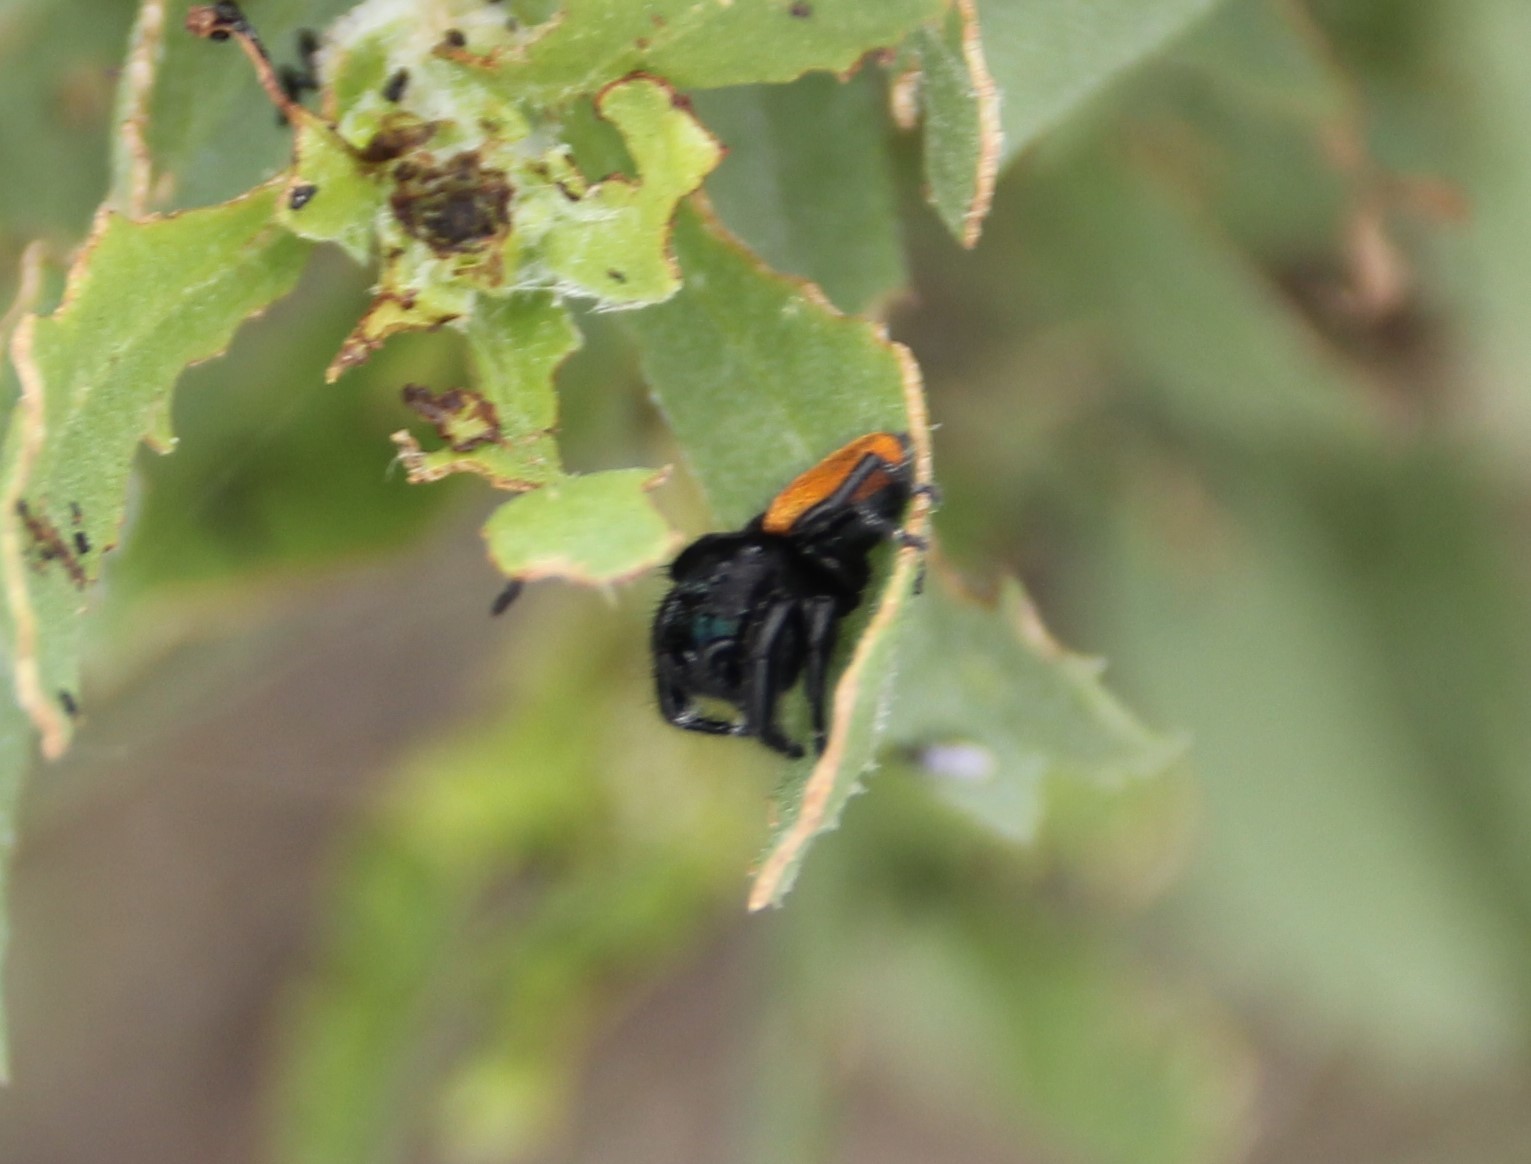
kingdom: Animalia
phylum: Arthropoda
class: Arachnida
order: Araneae
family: Salticidae
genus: Phidippus
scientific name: Phidippus johnsoni
